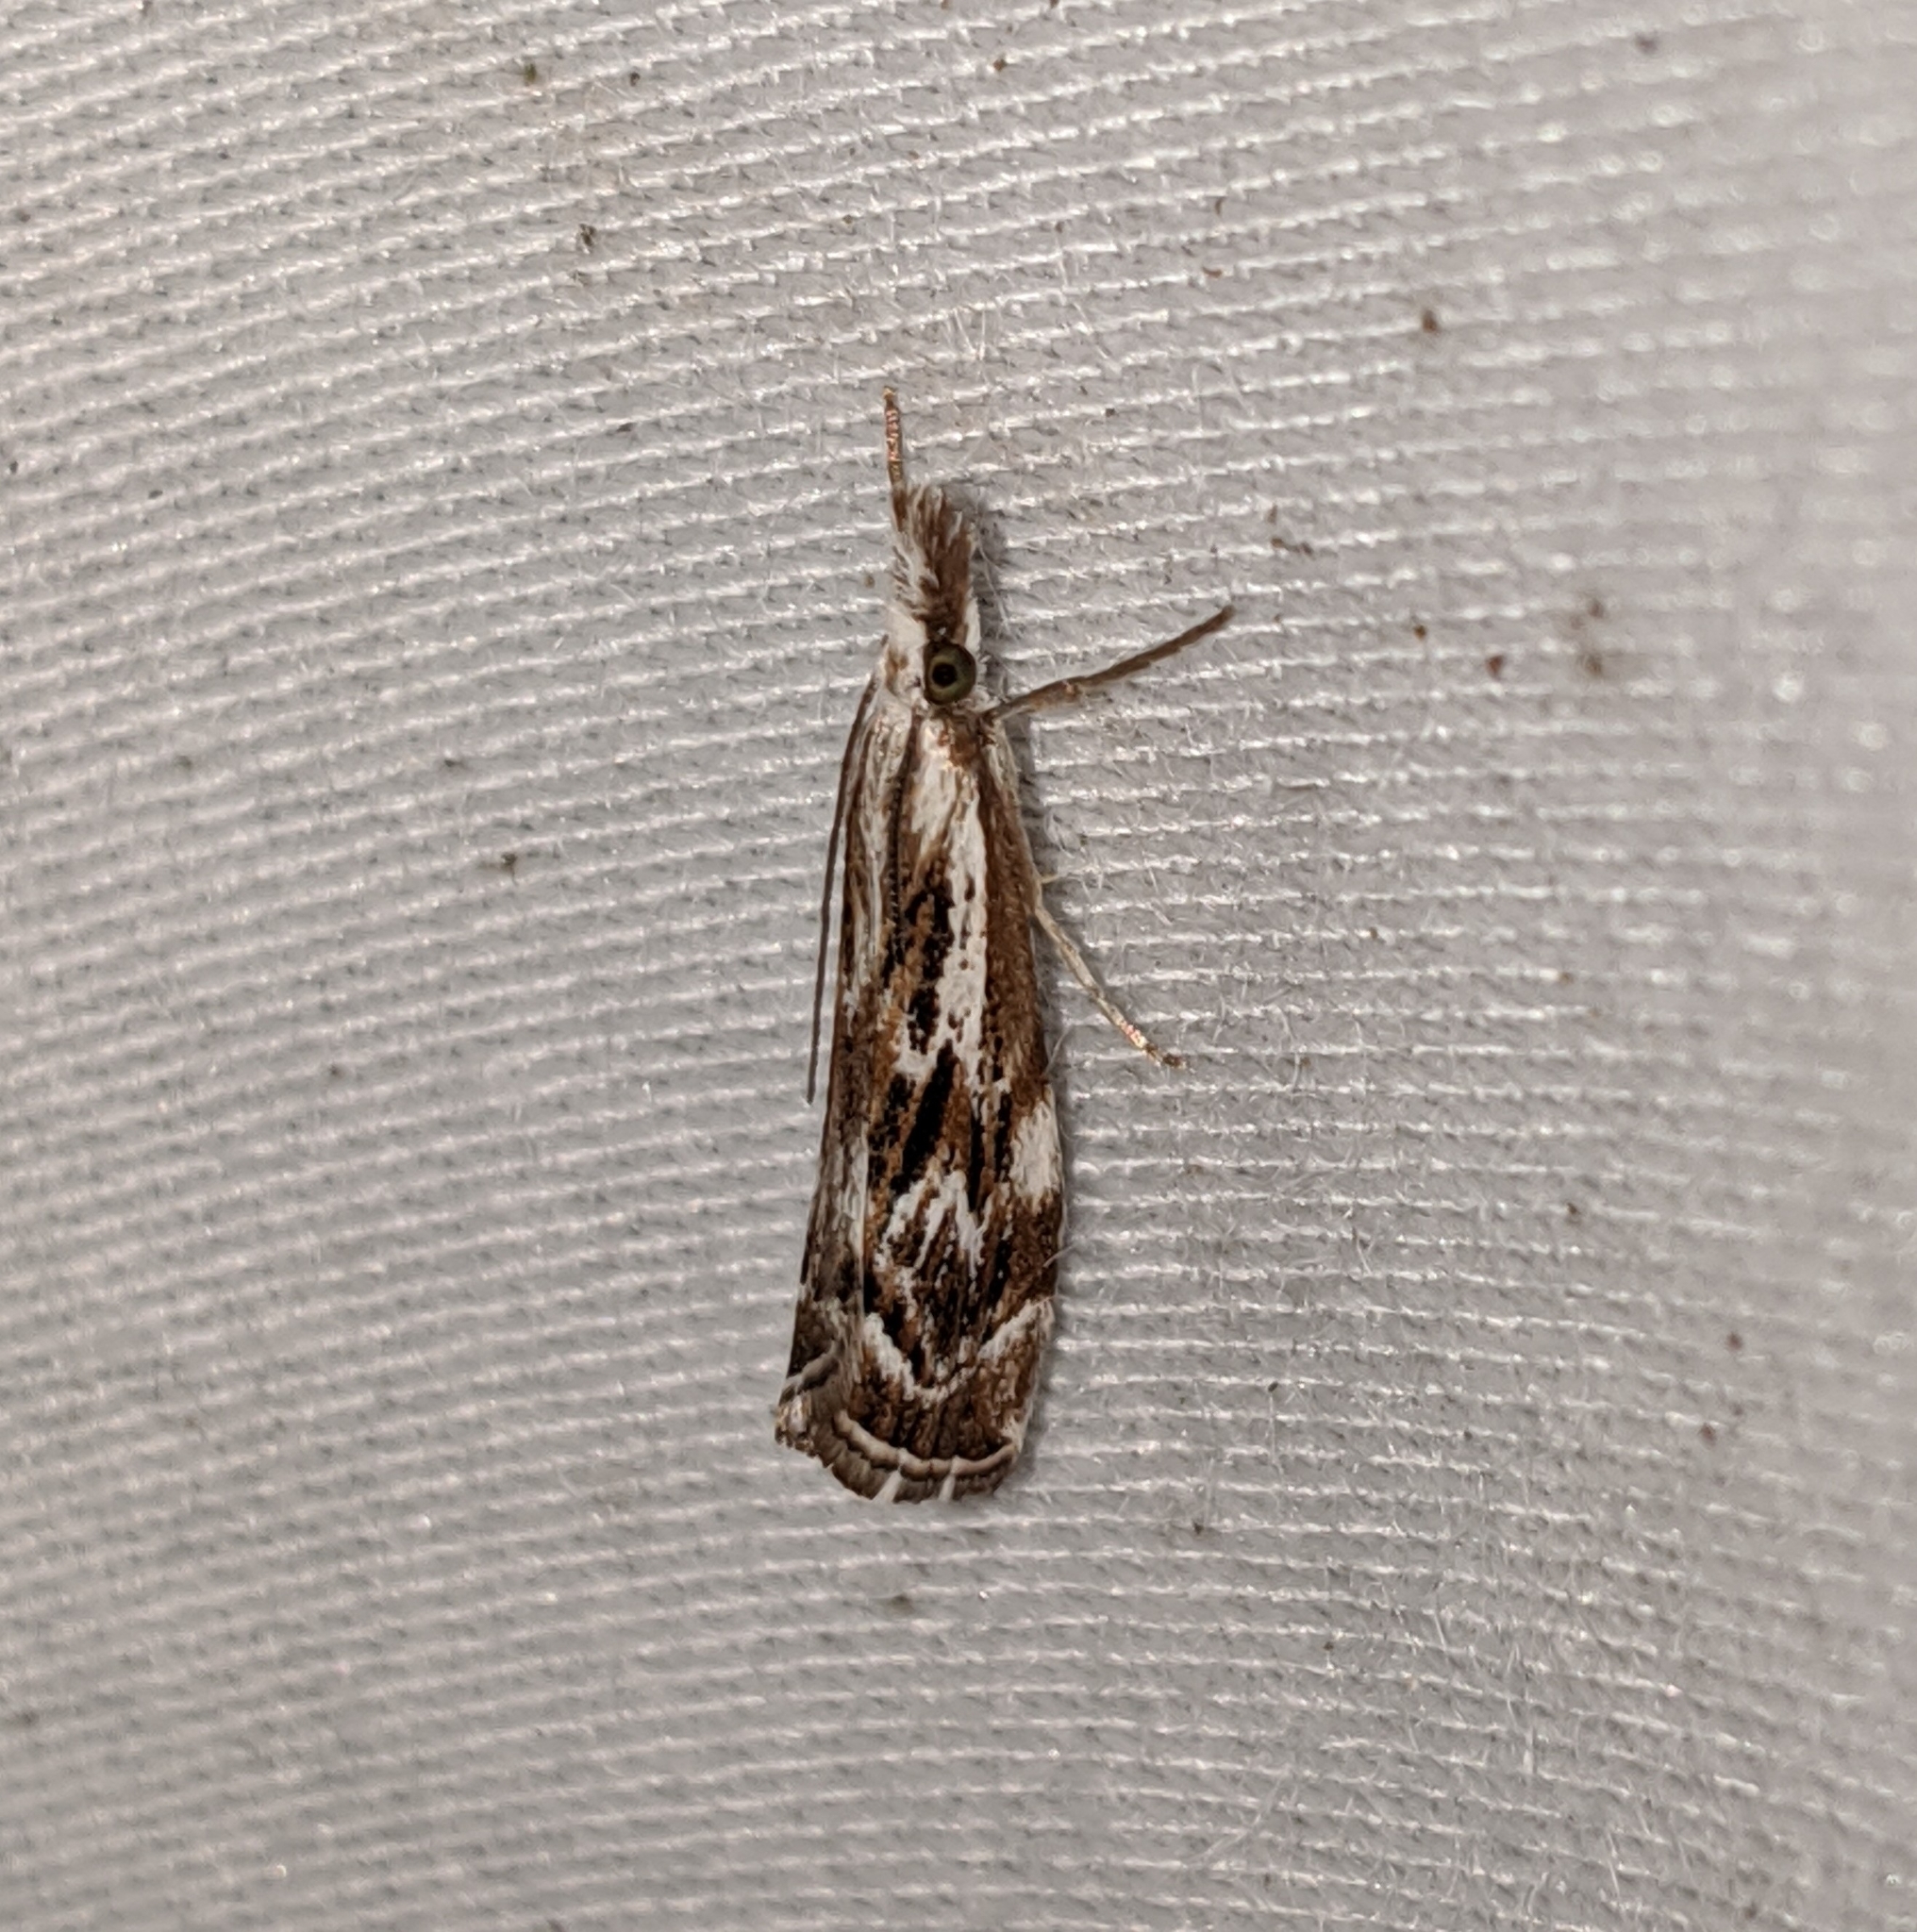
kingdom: Animalia
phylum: Arthropoda
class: Insecta
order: Lepidoptera
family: Crambidae
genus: Catoptria
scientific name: Catoptria oregonicus
